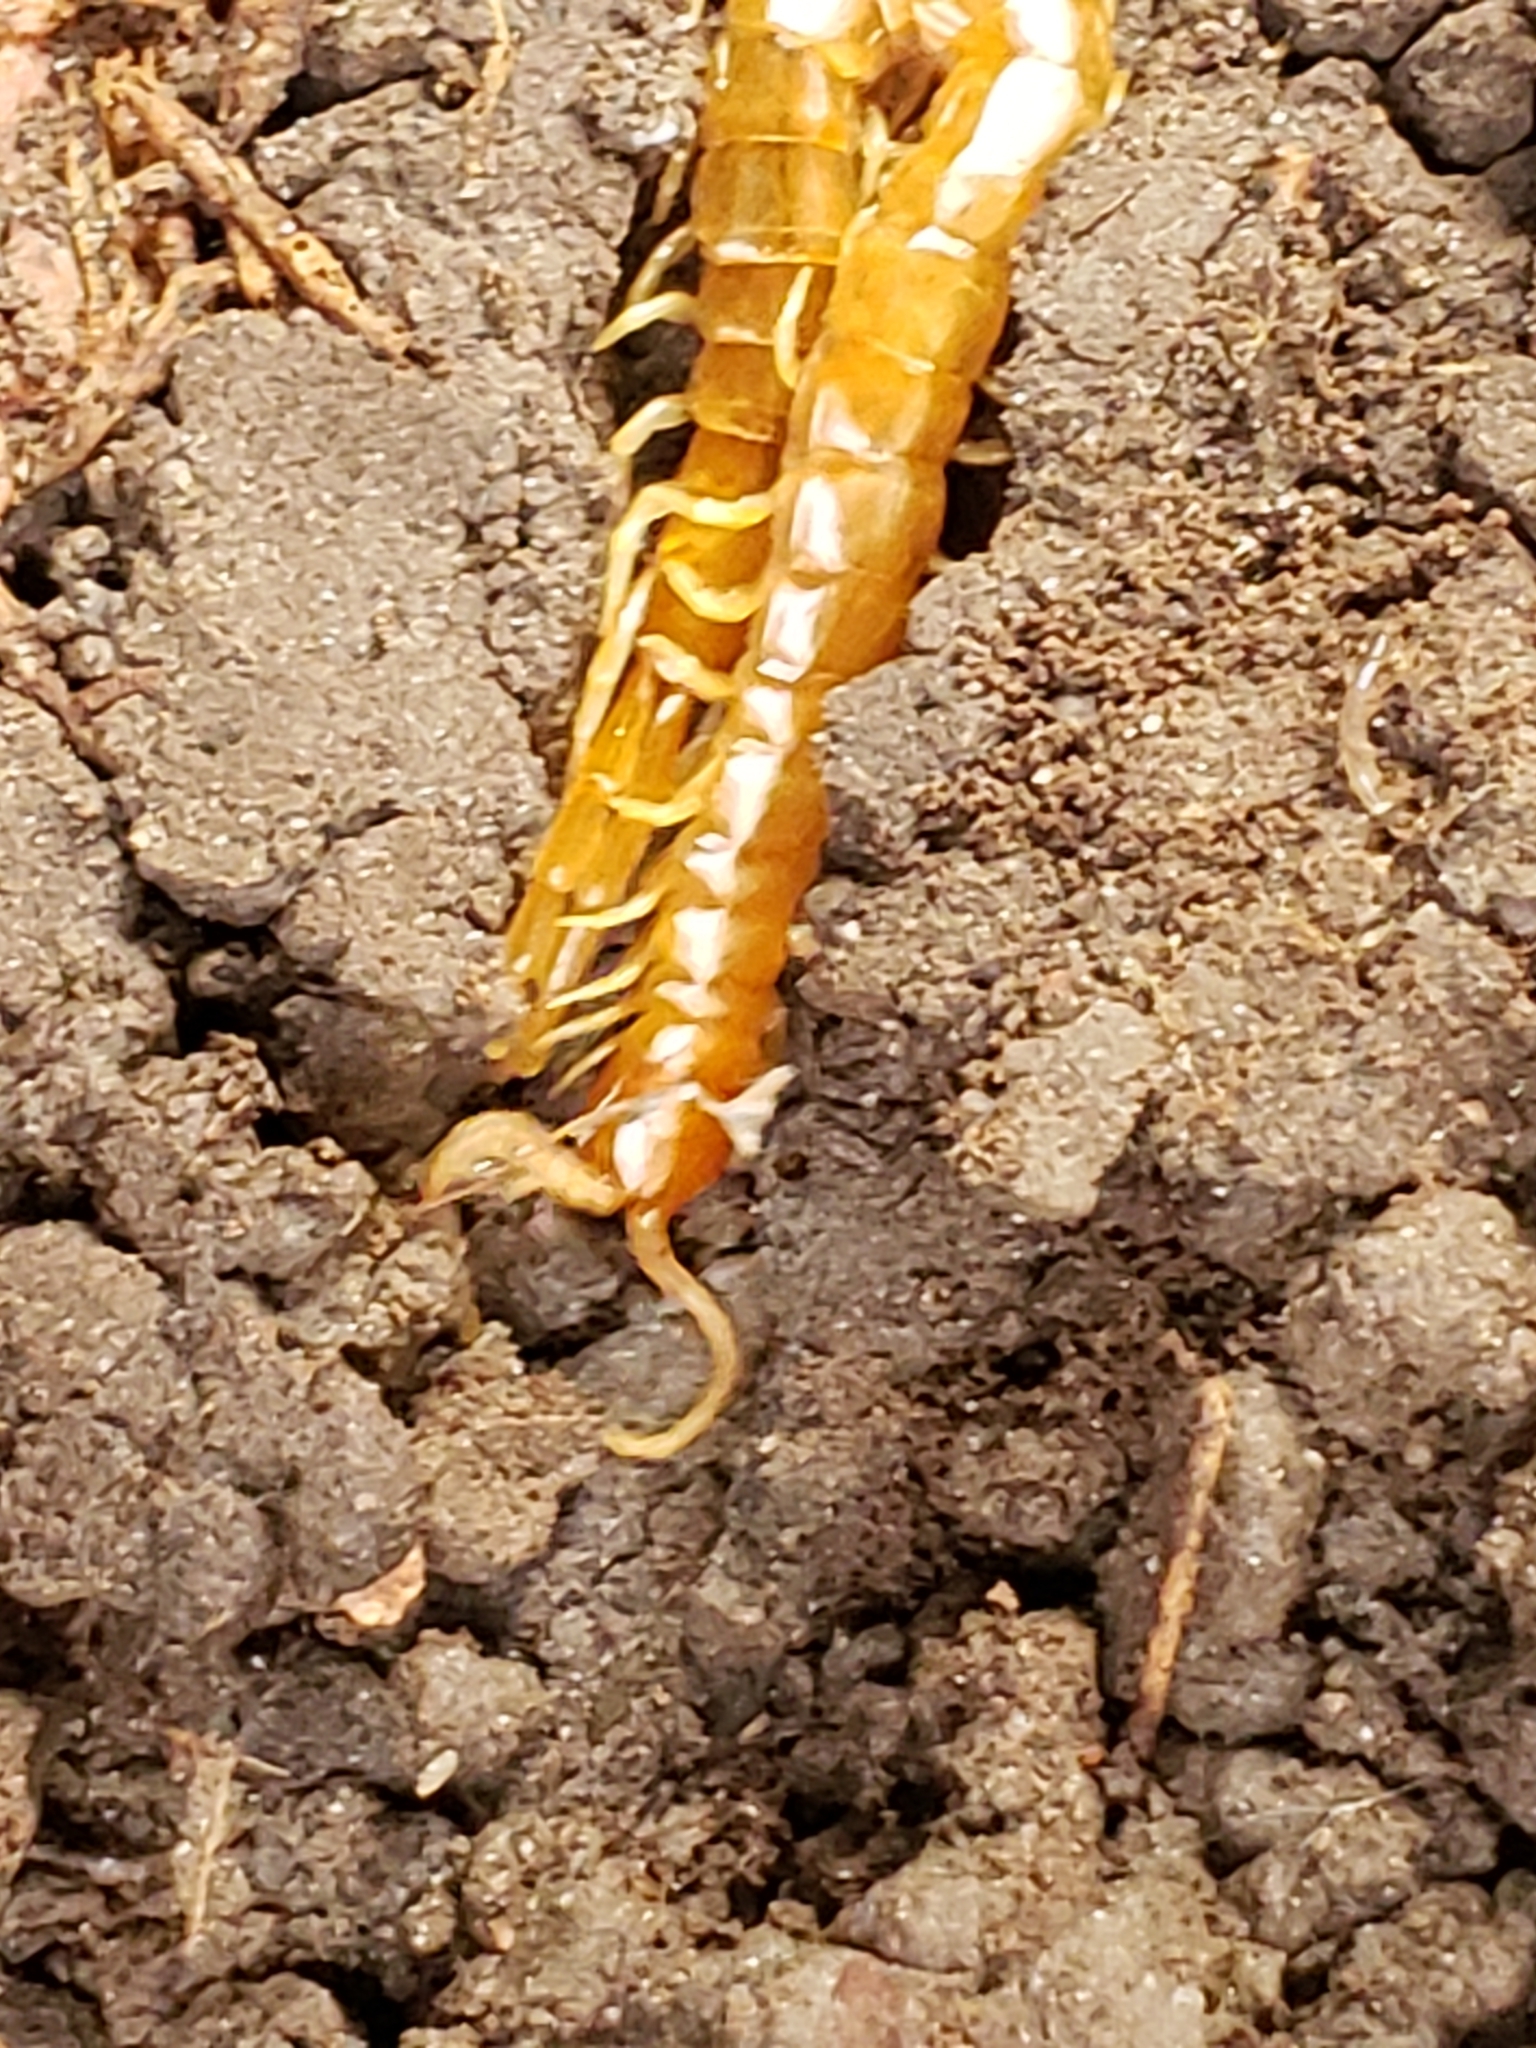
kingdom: Animalia
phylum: Arthropoda
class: Chilopoda
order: Scolopendromorpha
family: Scolopocryptopidae
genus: Scolopocryptops
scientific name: Scolopocryptops peregrinator
